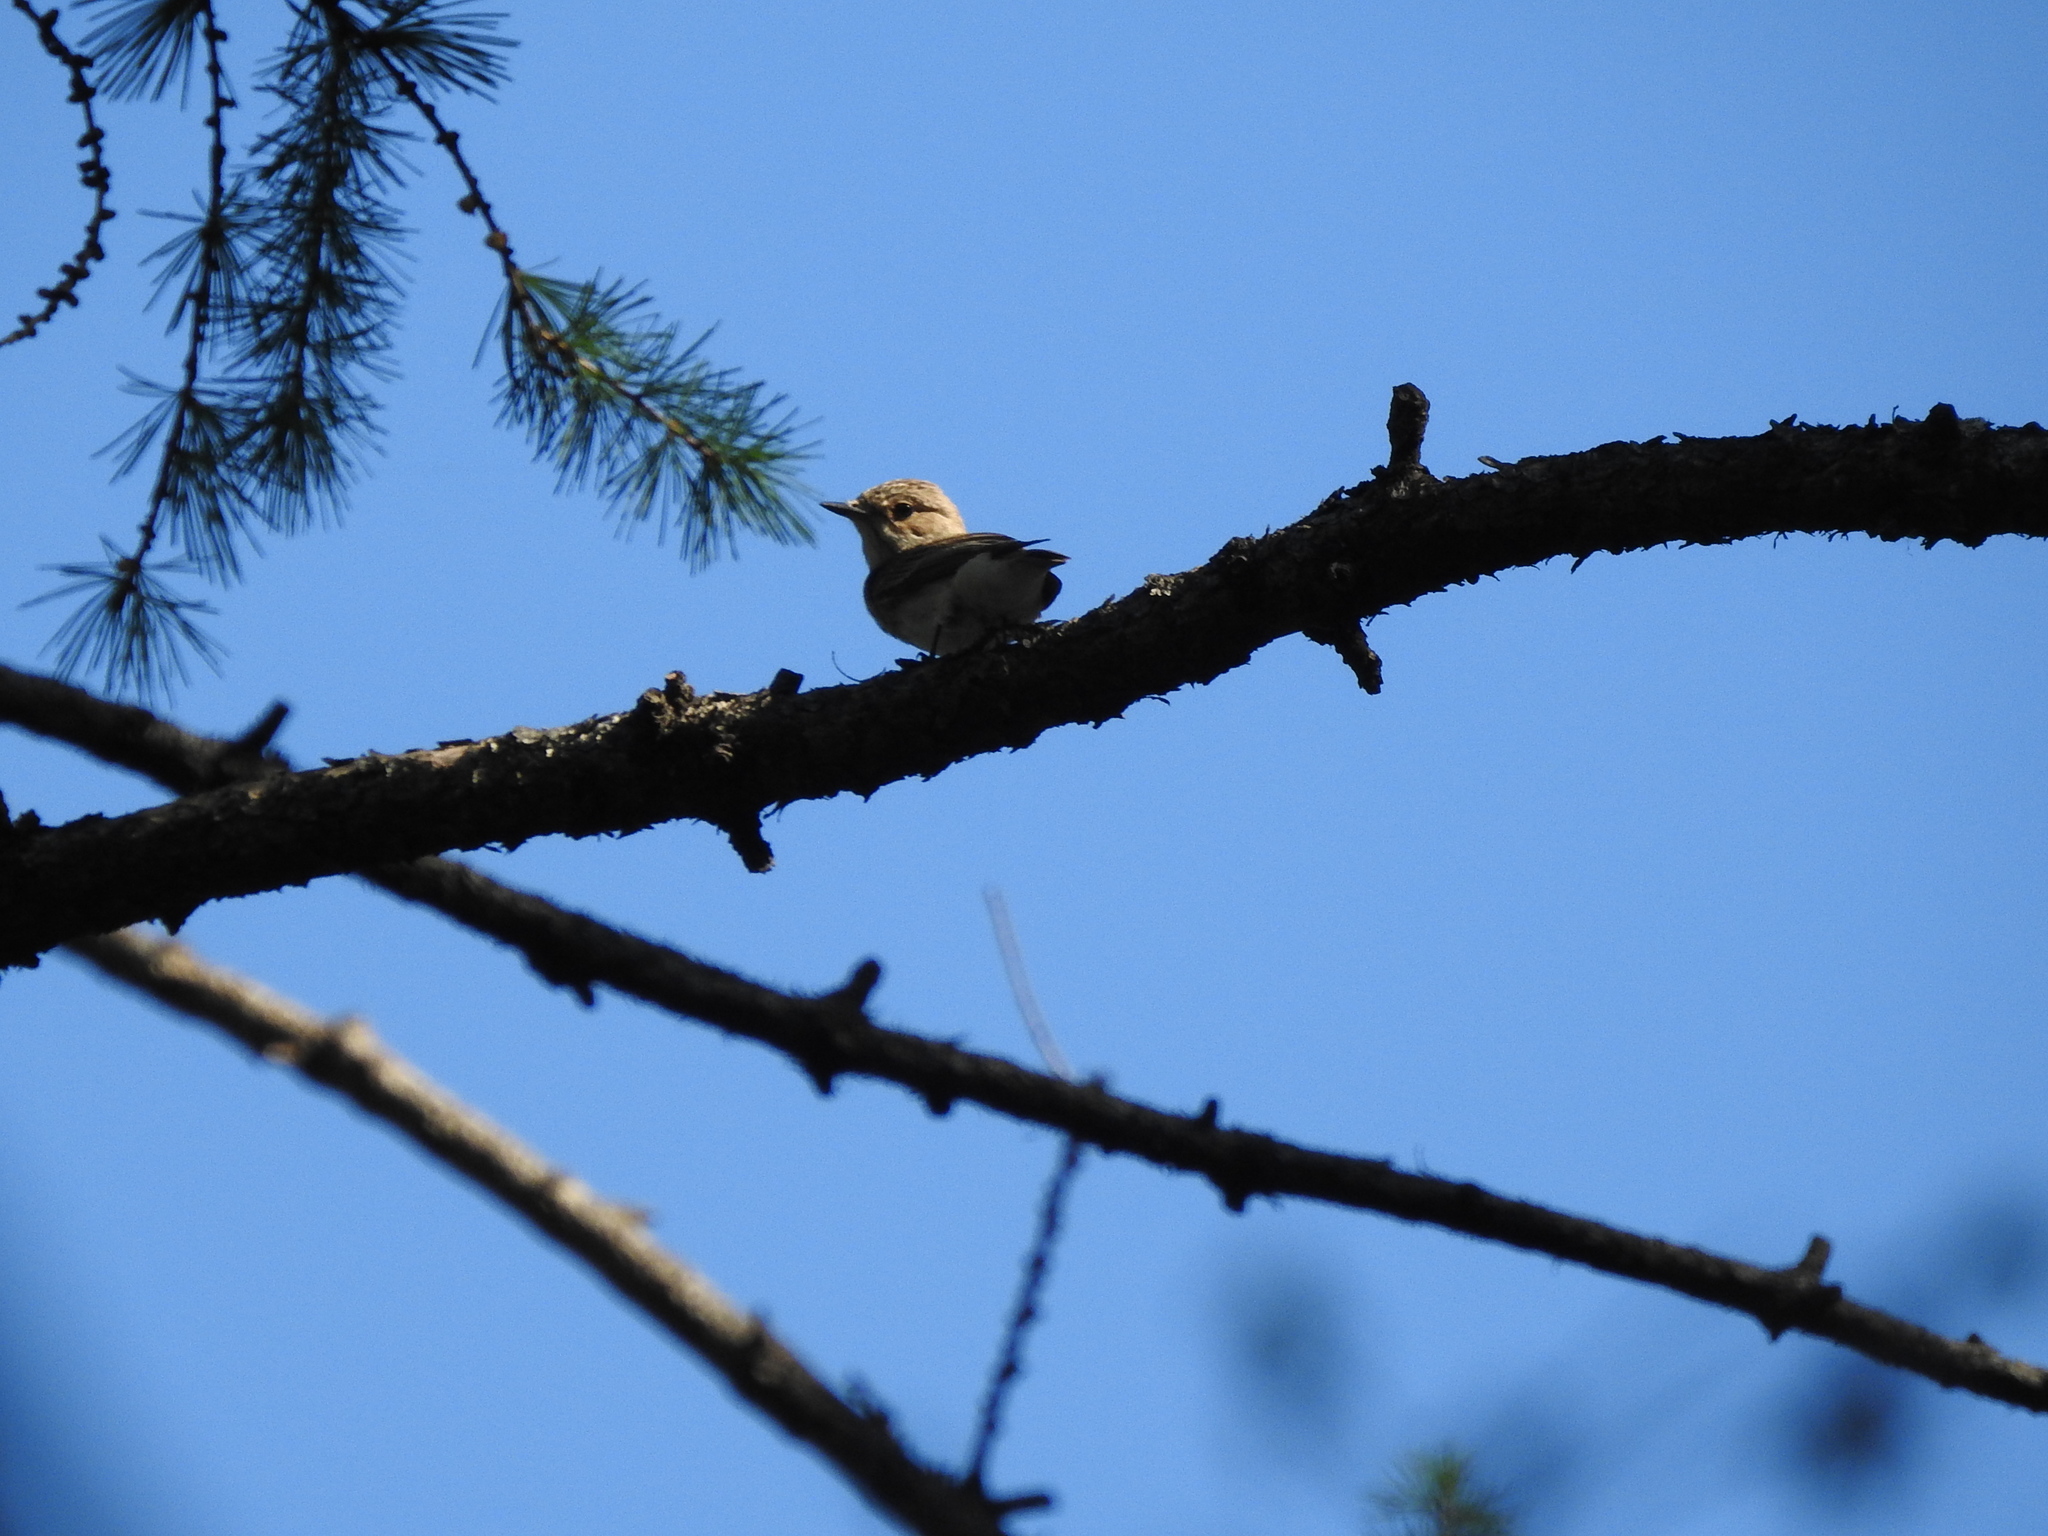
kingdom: Animalia
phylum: Chordata
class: Aves
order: Passeriformes
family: Muscicapidae
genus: Muscicapa
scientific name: Muscicapa striata
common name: Spotted flycatcher
